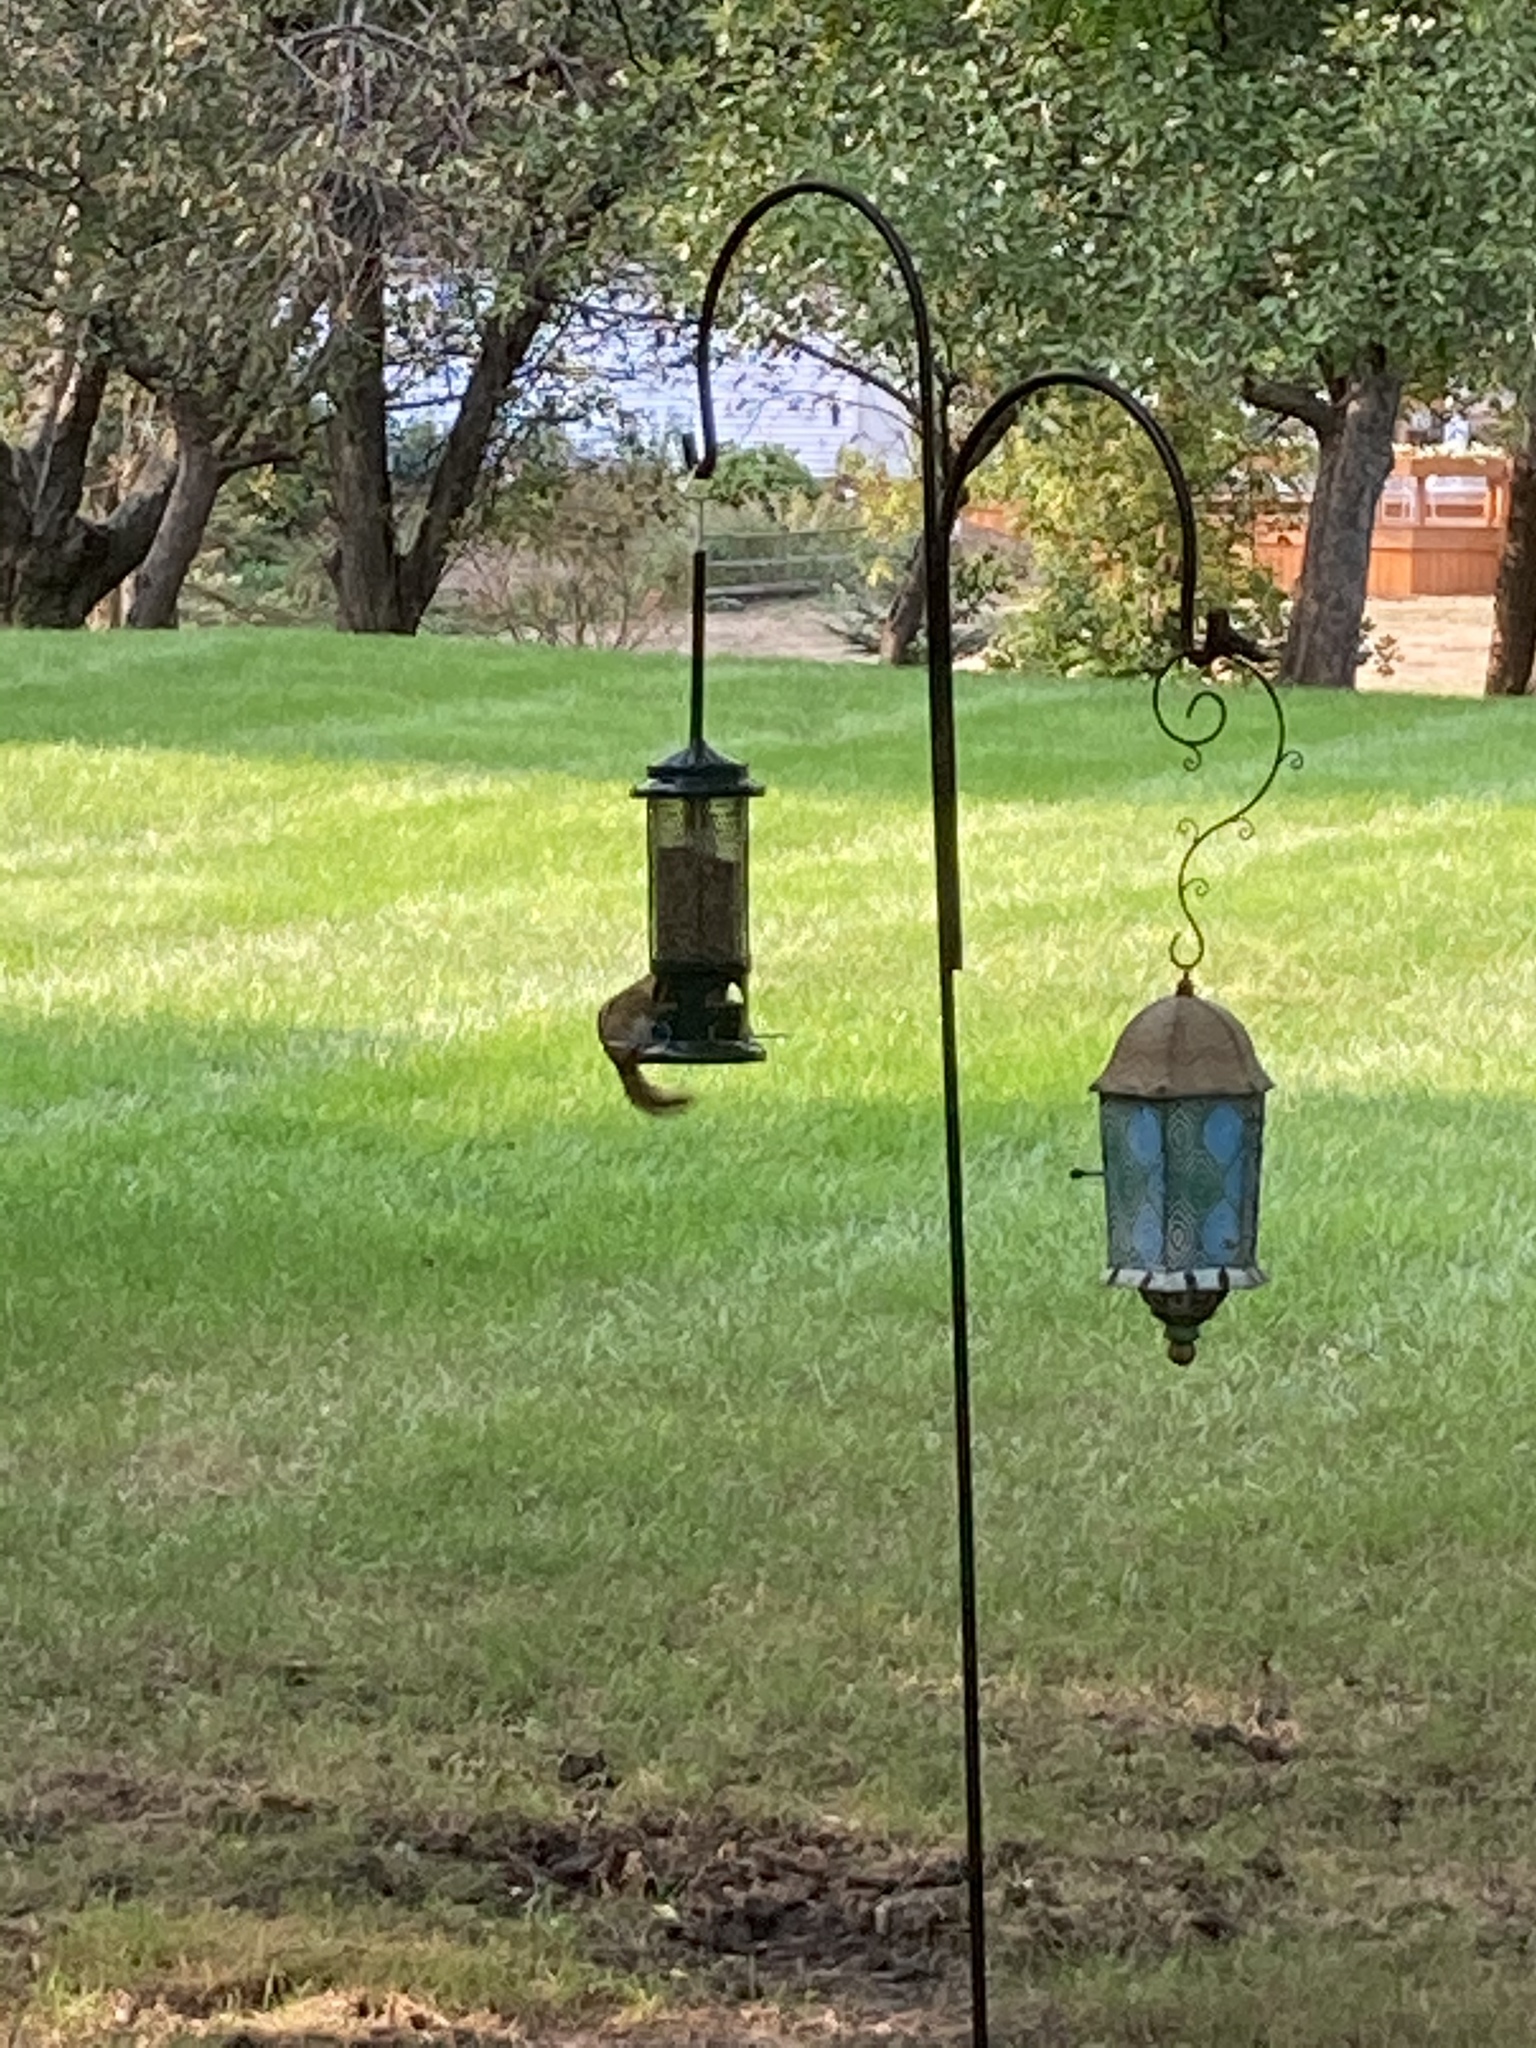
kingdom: Animalia
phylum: Chordata
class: Mammalia
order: Rodentia
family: Sciuridae
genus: Tamias
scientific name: Tamias striatus
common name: Eastern chipmunk
